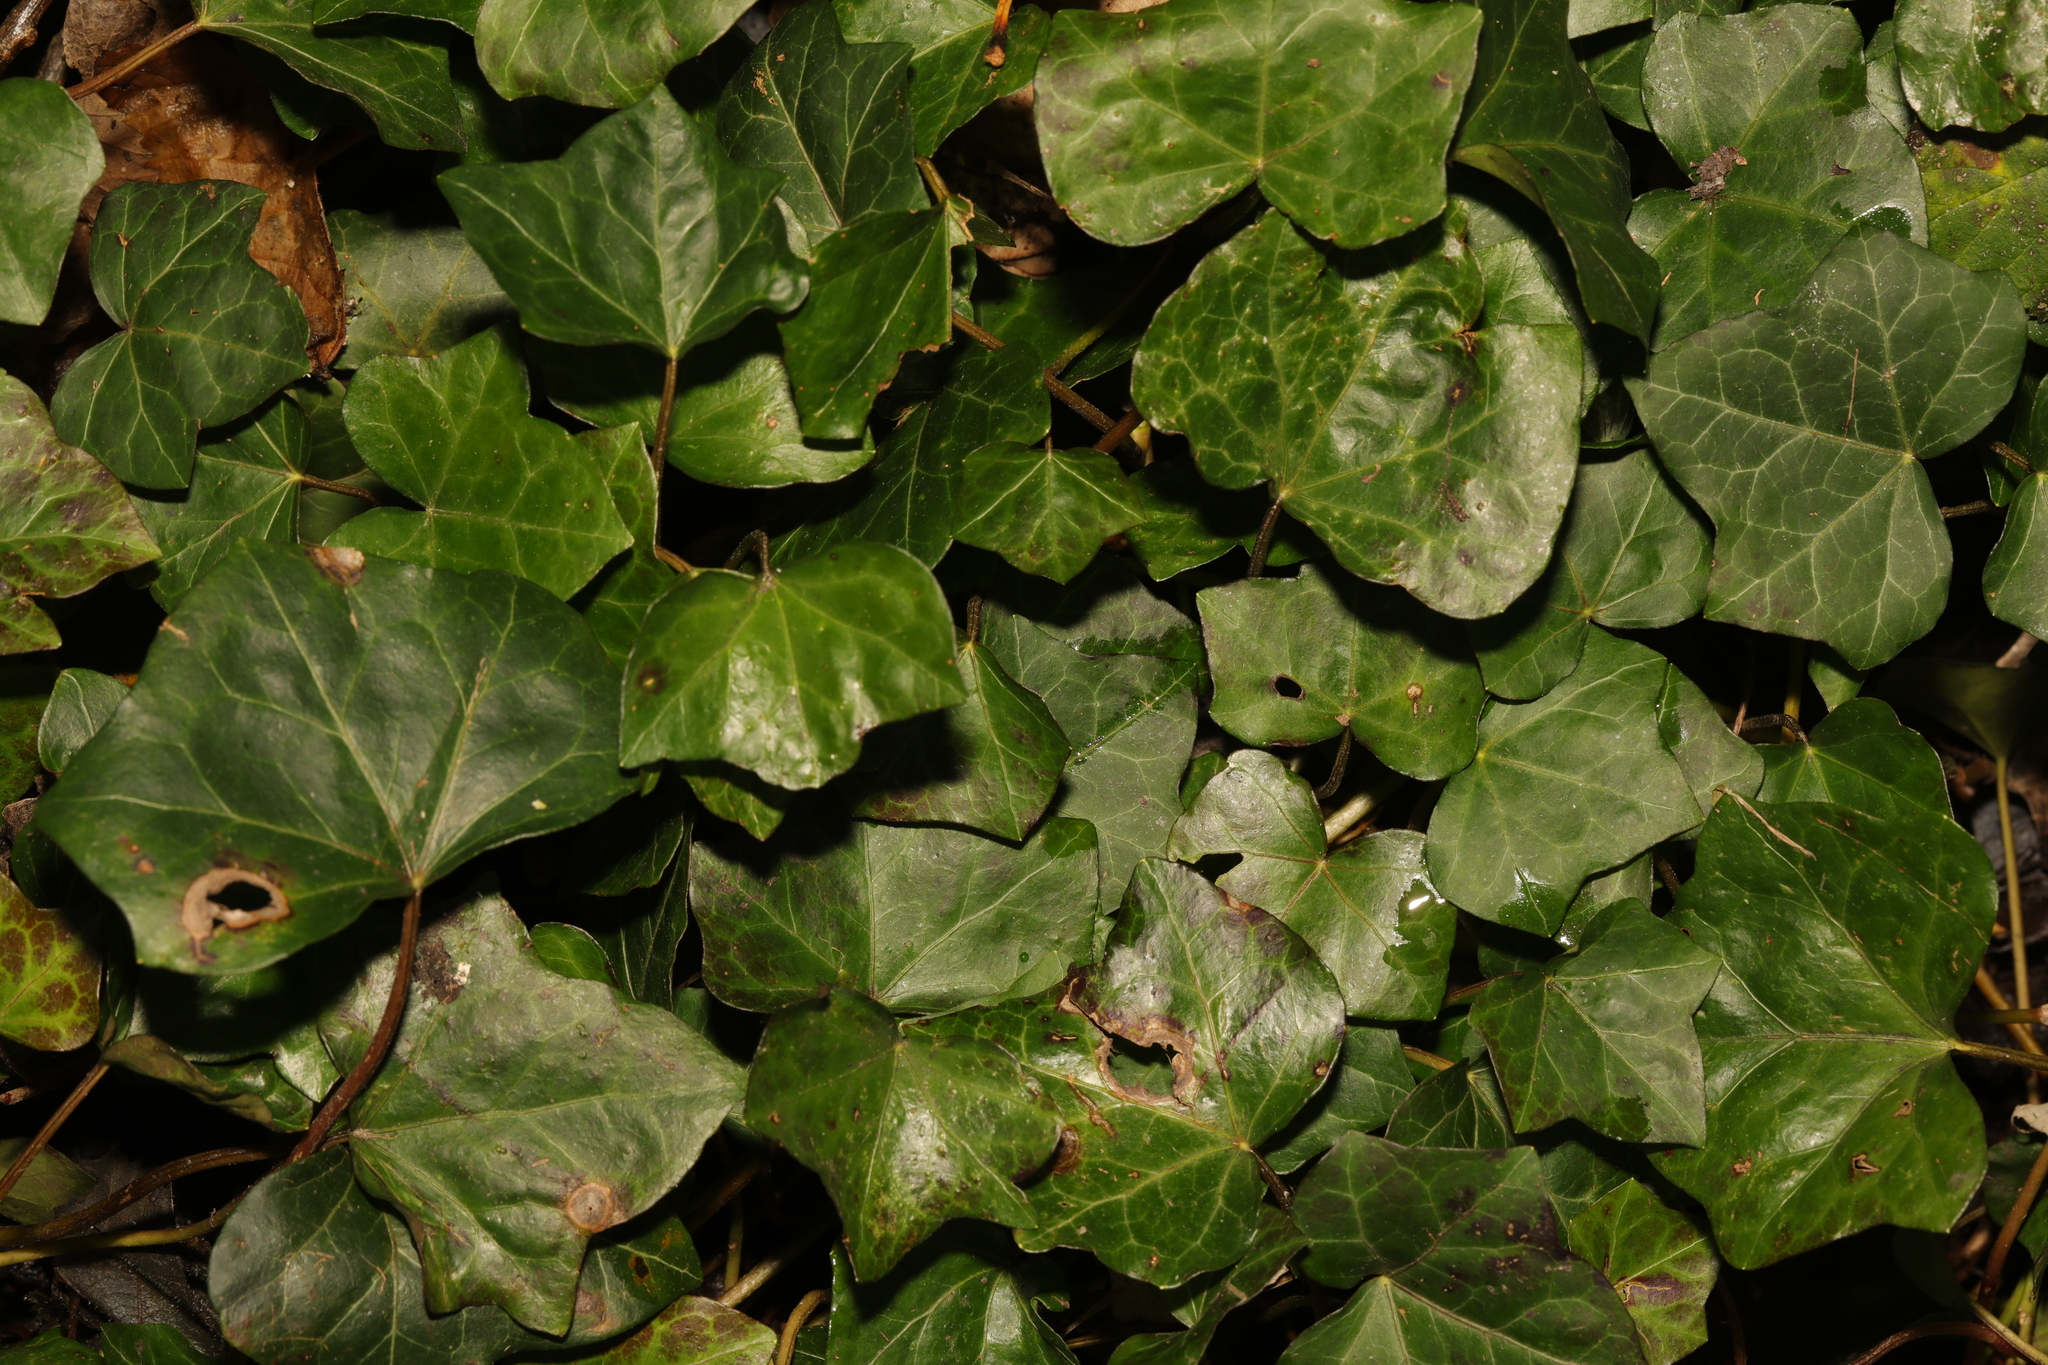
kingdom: Plantae
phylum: Tracheophyta
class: Magnoliopsida
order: Apiales
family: Araliaceae
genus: Hedera
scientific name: Hedera helix
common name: Ivy
